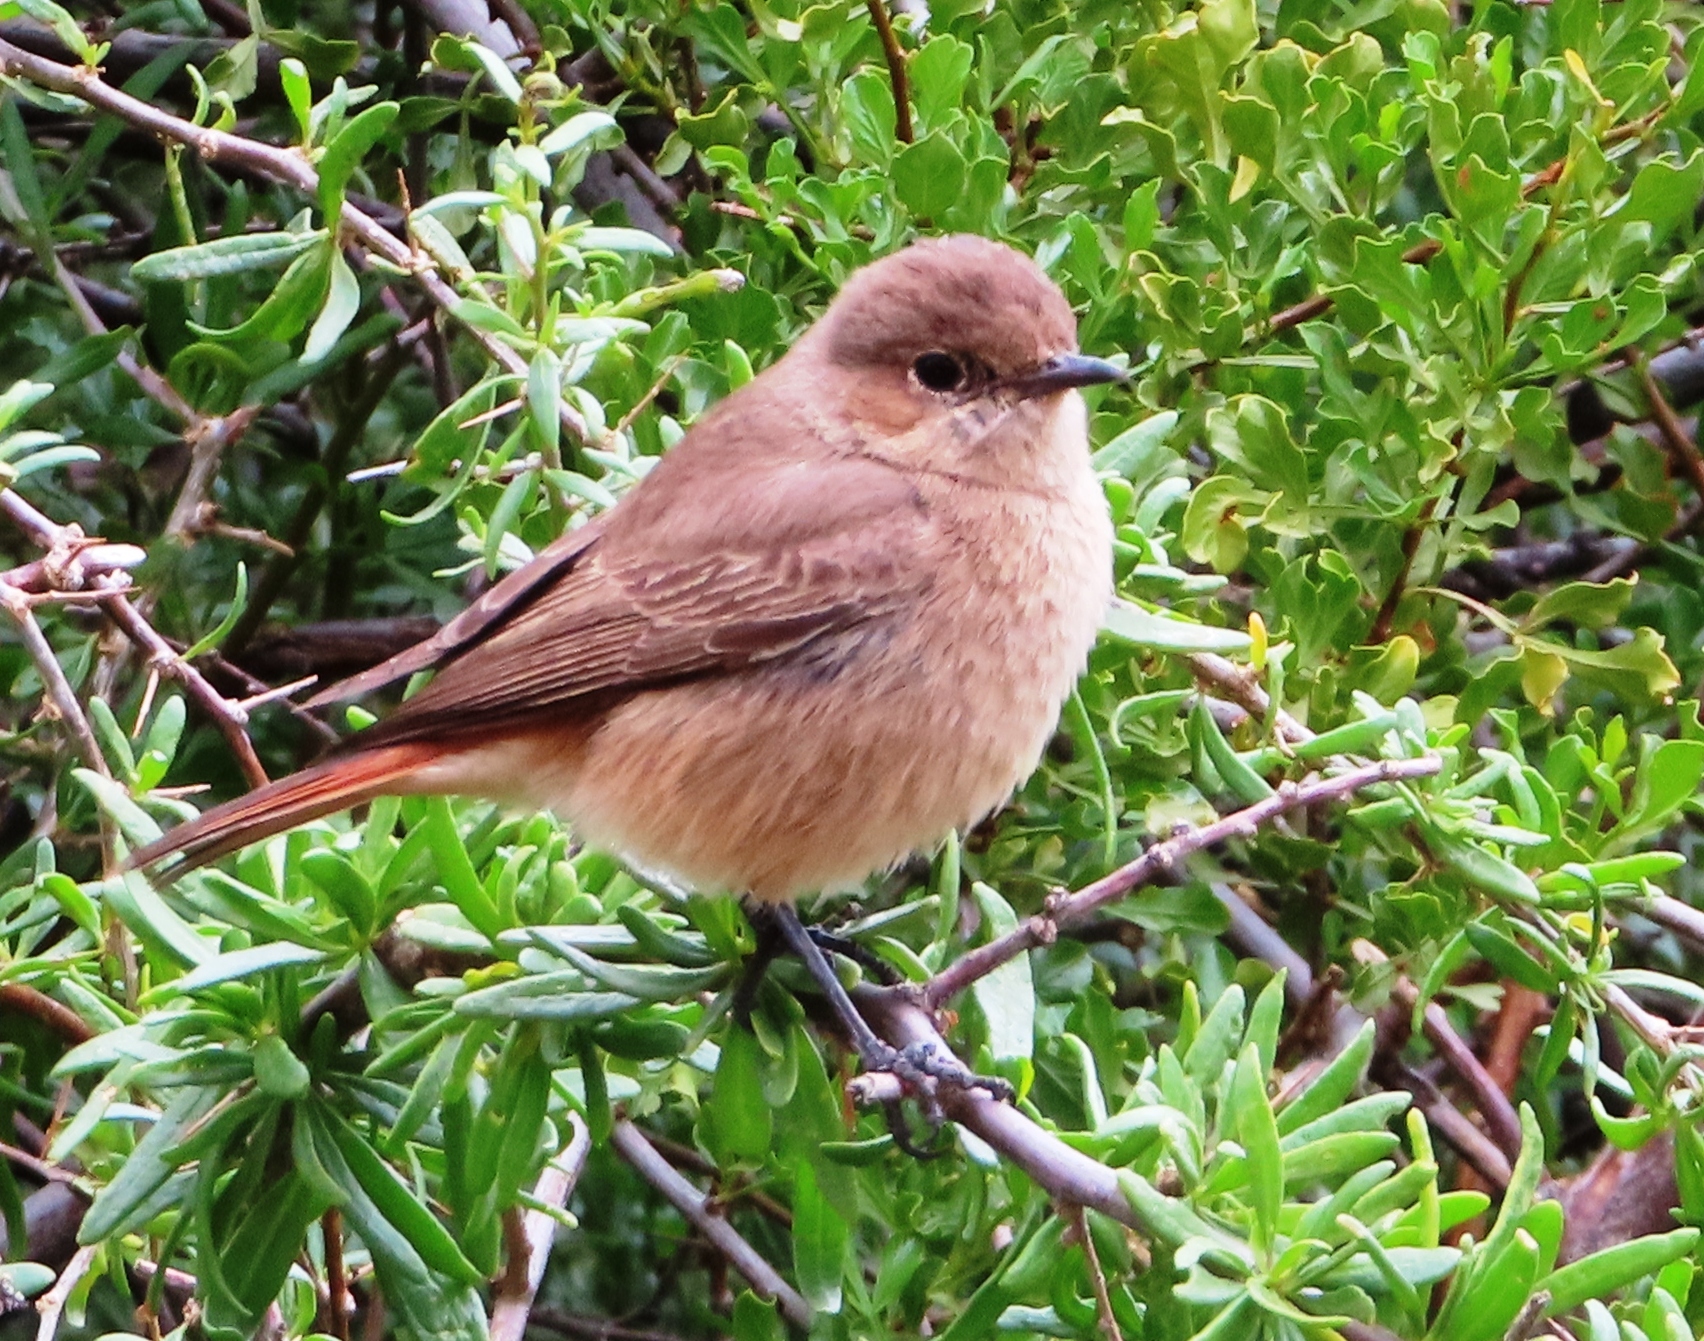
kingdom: Animalia
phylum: Chordata
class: Aves
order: Passeriformes
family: Muscicapidae
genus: Oenanthe
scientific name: Oenanthe familiaris
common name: Familiar chat
